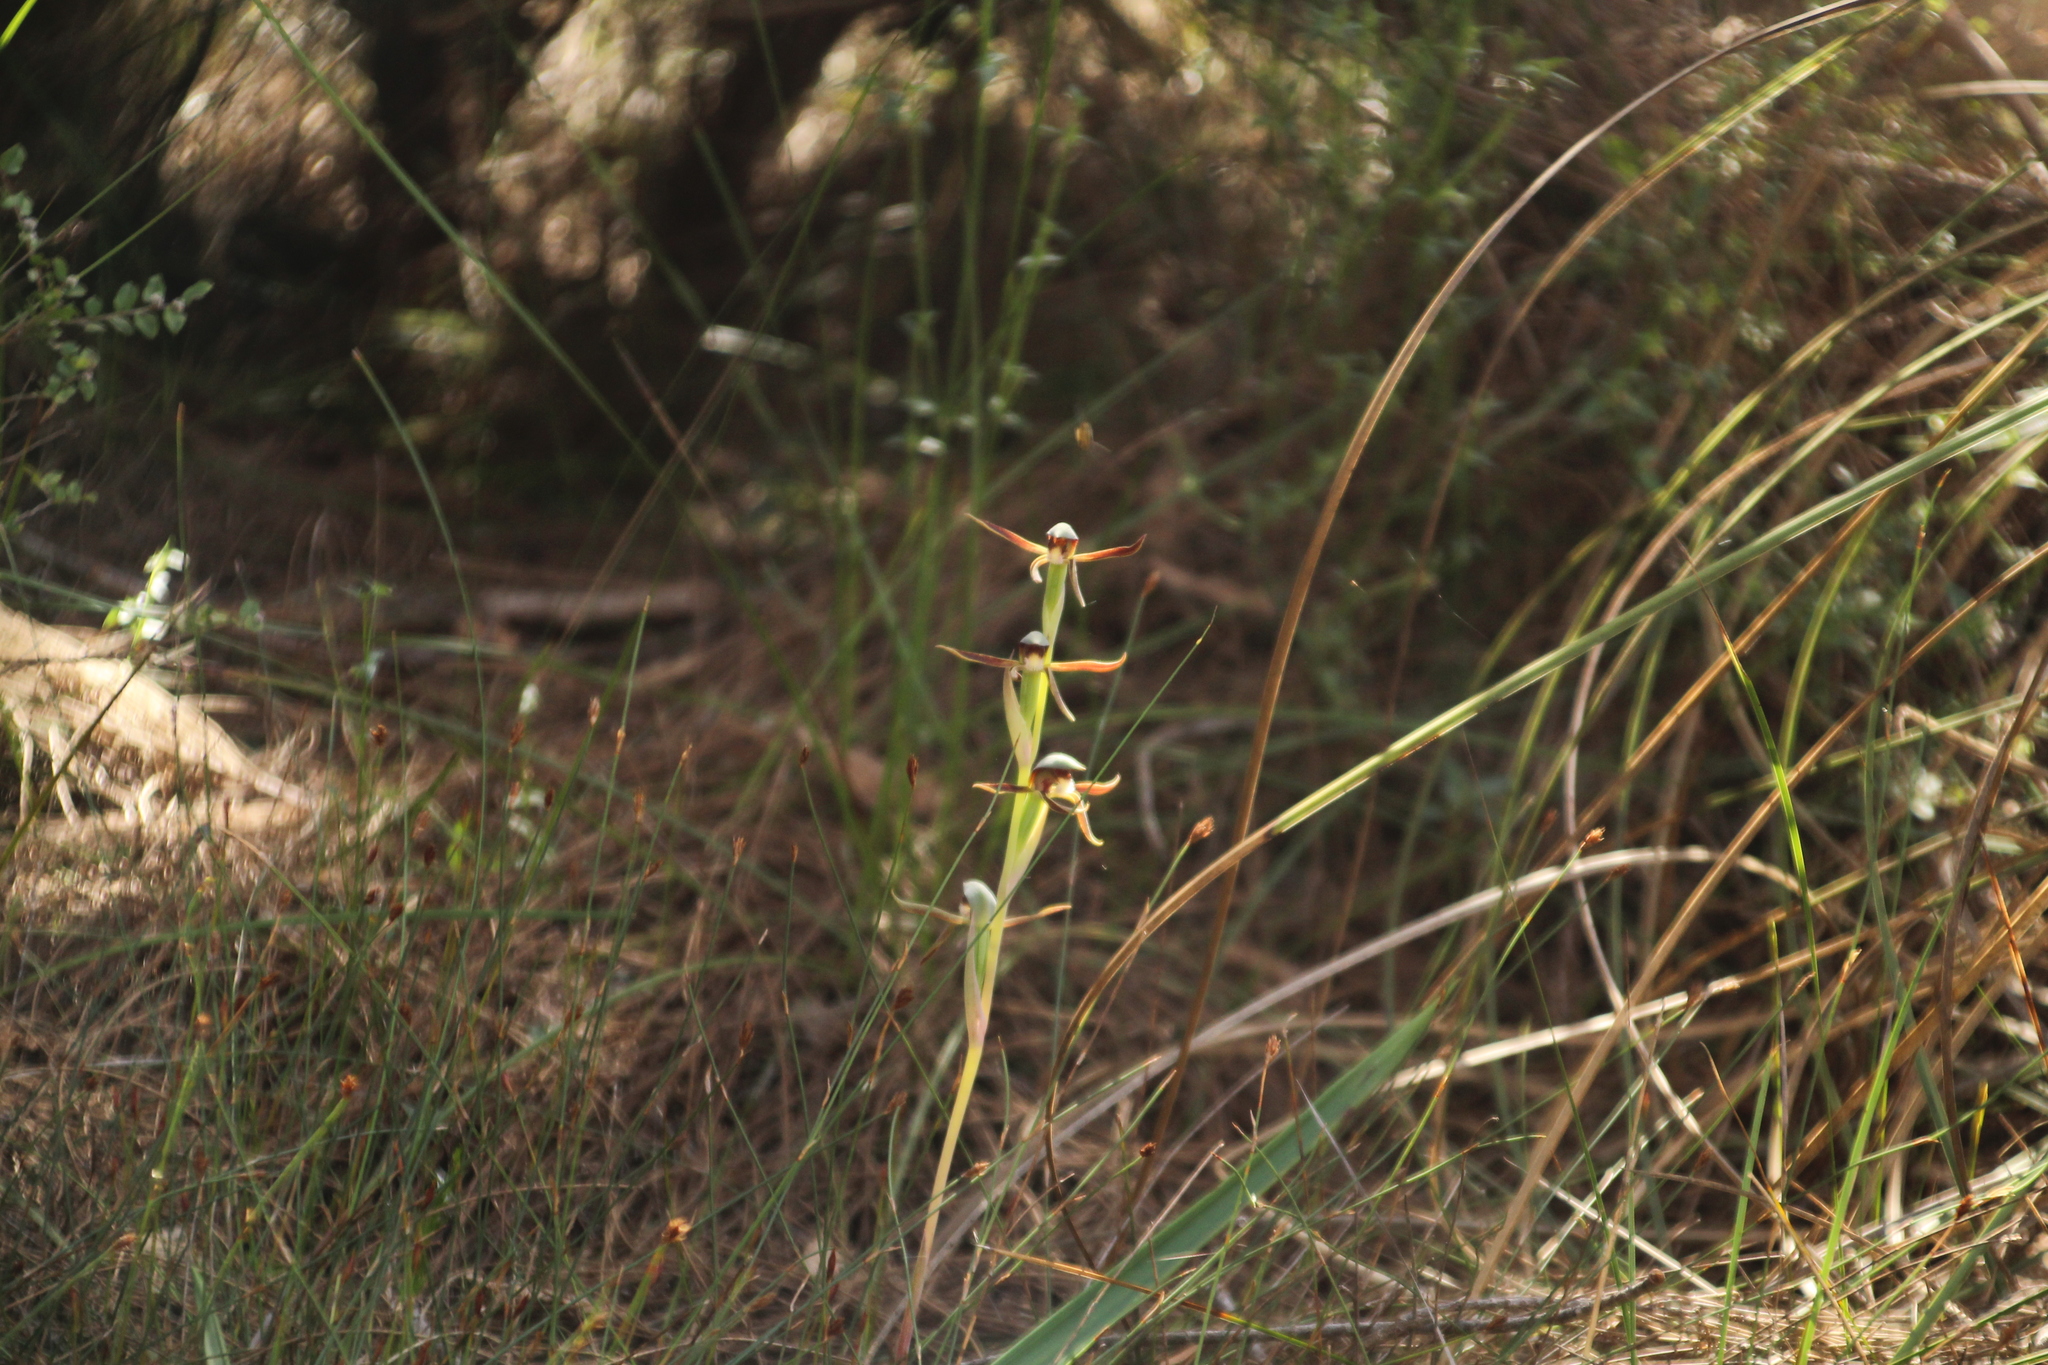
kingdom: Plantae
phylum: Tracheophyta
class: Liliopsida
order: Asparagales
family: Orchidaceae
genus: Lyperanthus
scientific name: Lyperanthus serratus
